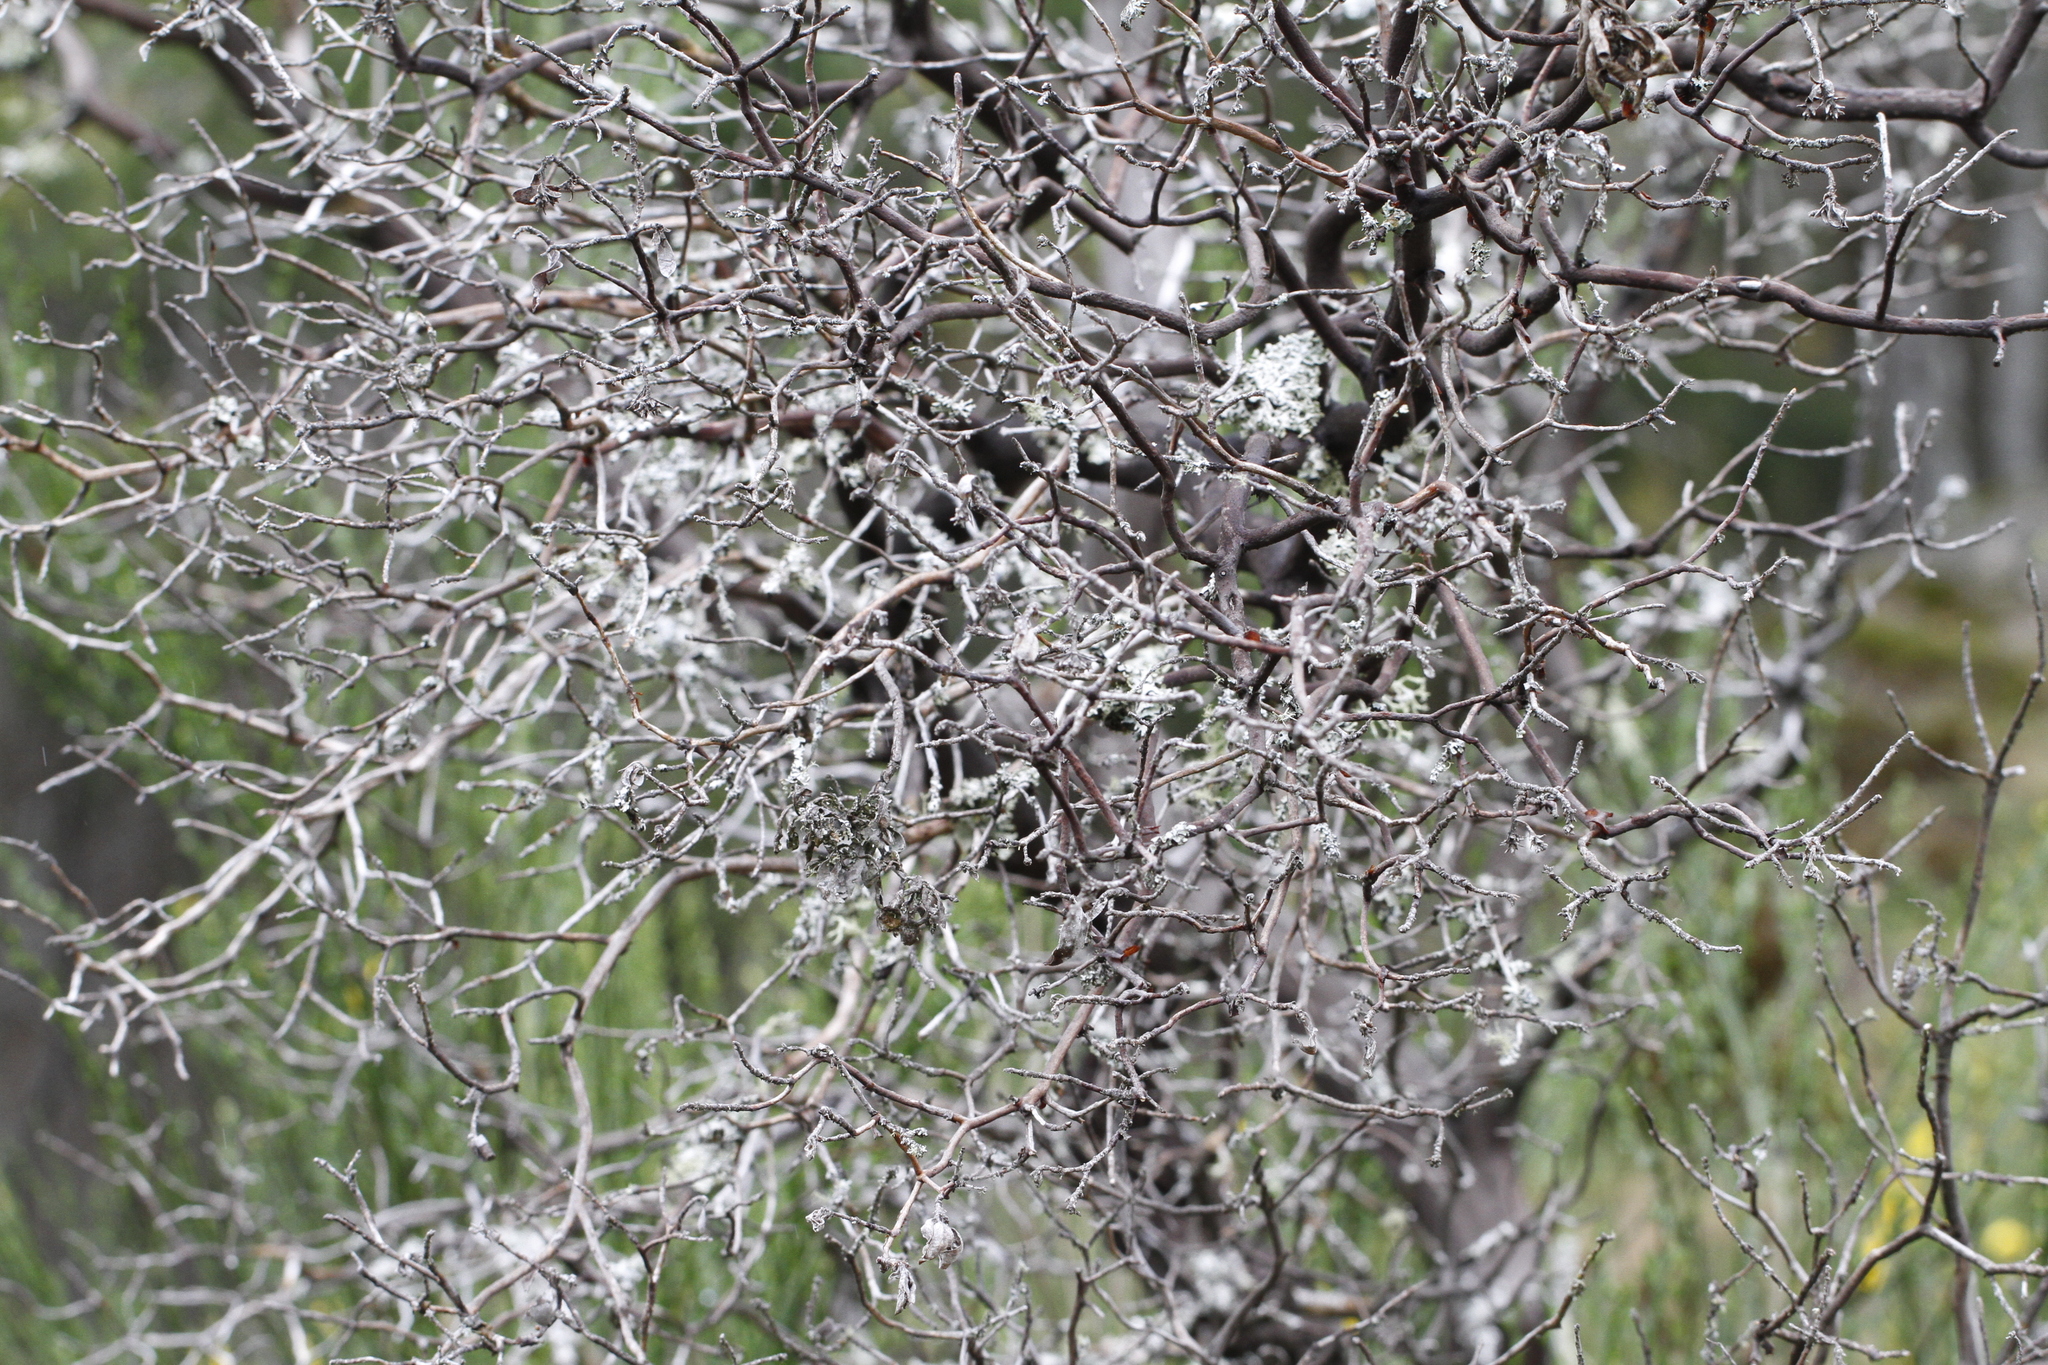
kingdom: Plantae
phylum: Tracheophyta
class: Magnoliopsida
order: Ericales
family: Ericaceae
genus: Arctostaphylos
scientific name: Arctostaphylos columbiana
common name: Bristly bearberry
